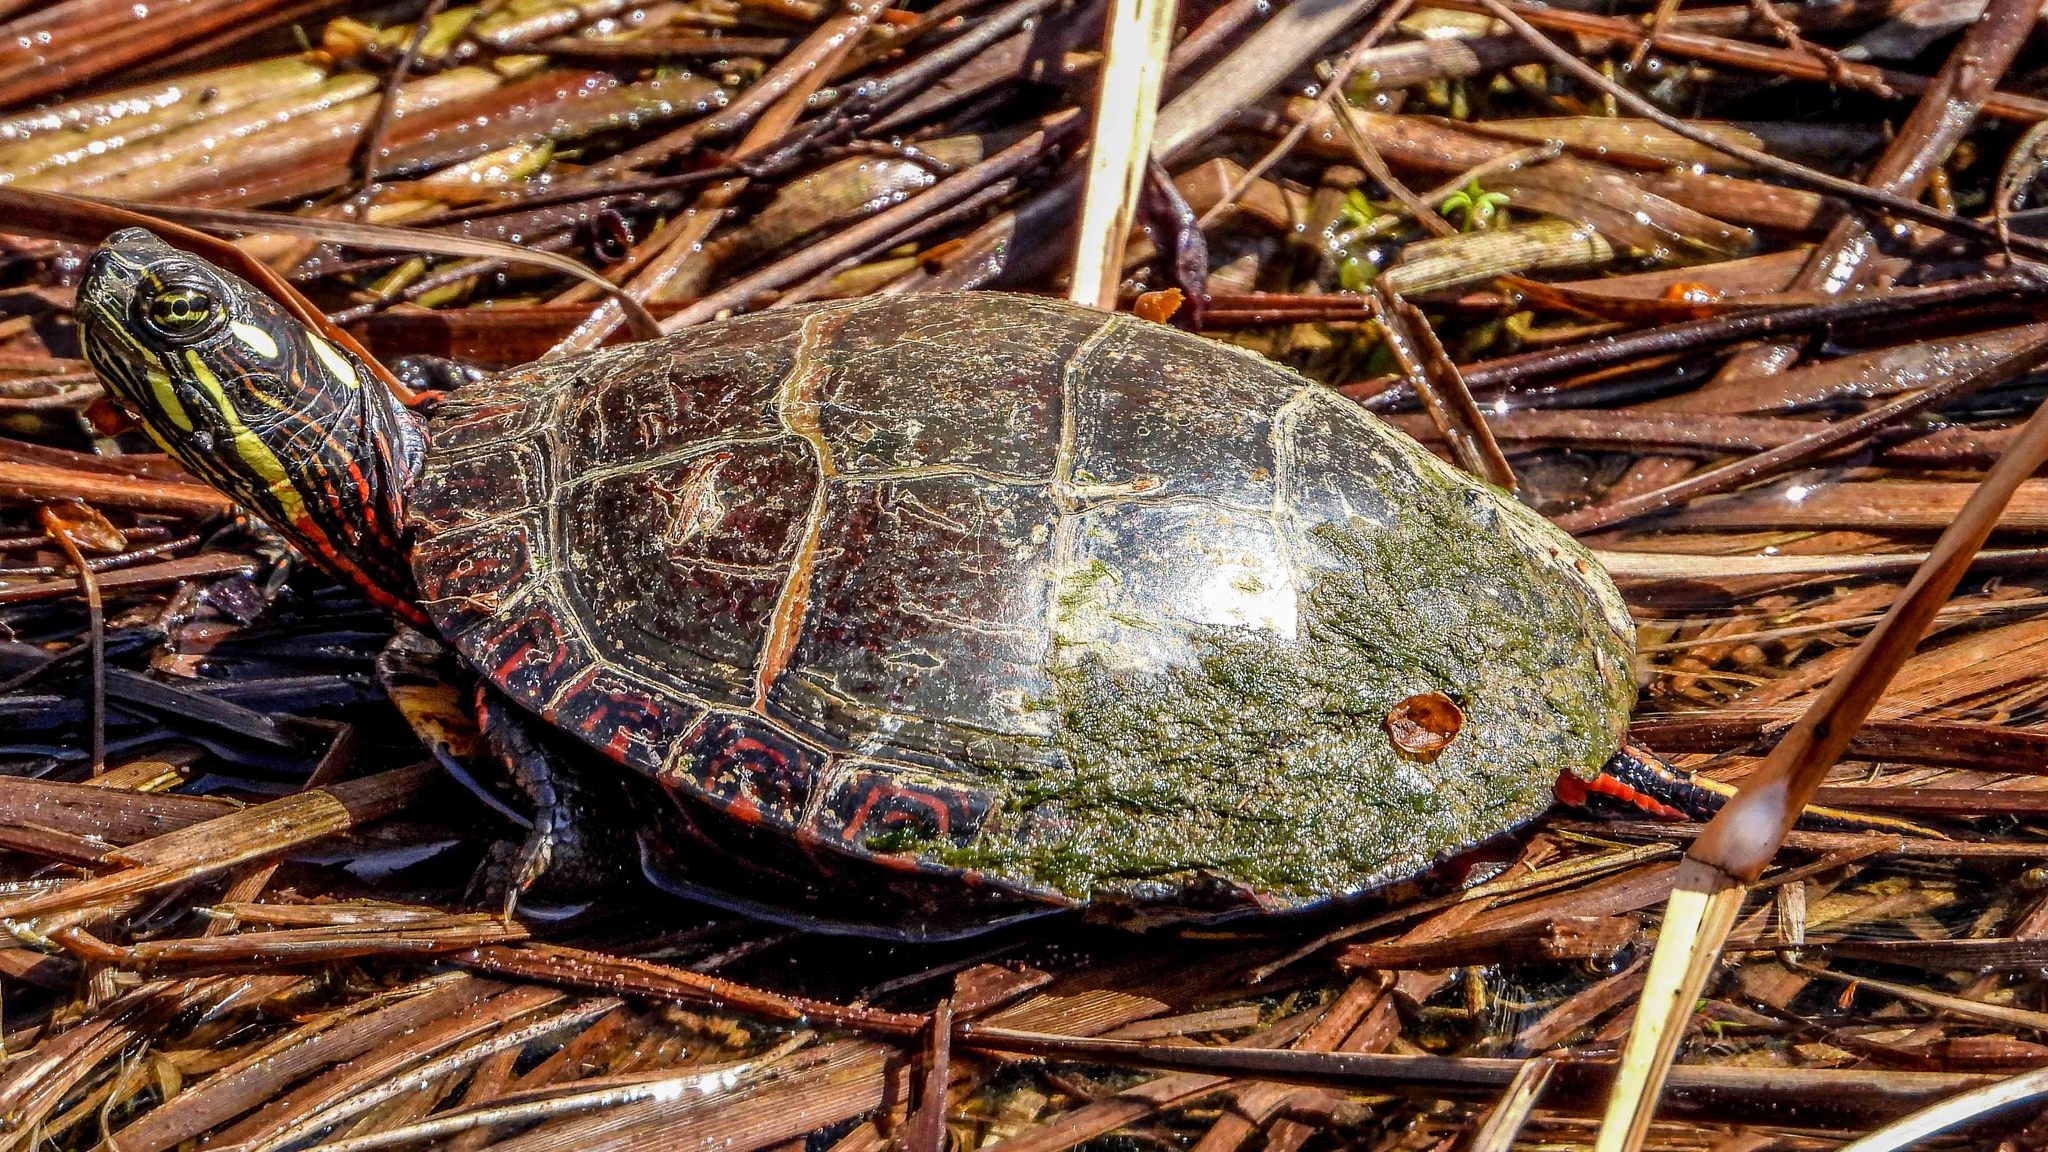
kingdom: Animalia
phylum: Chordata
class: Testudines
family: Emydidae
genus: Chrysemys
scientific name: Chrysemys picta
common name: Painted turtle
